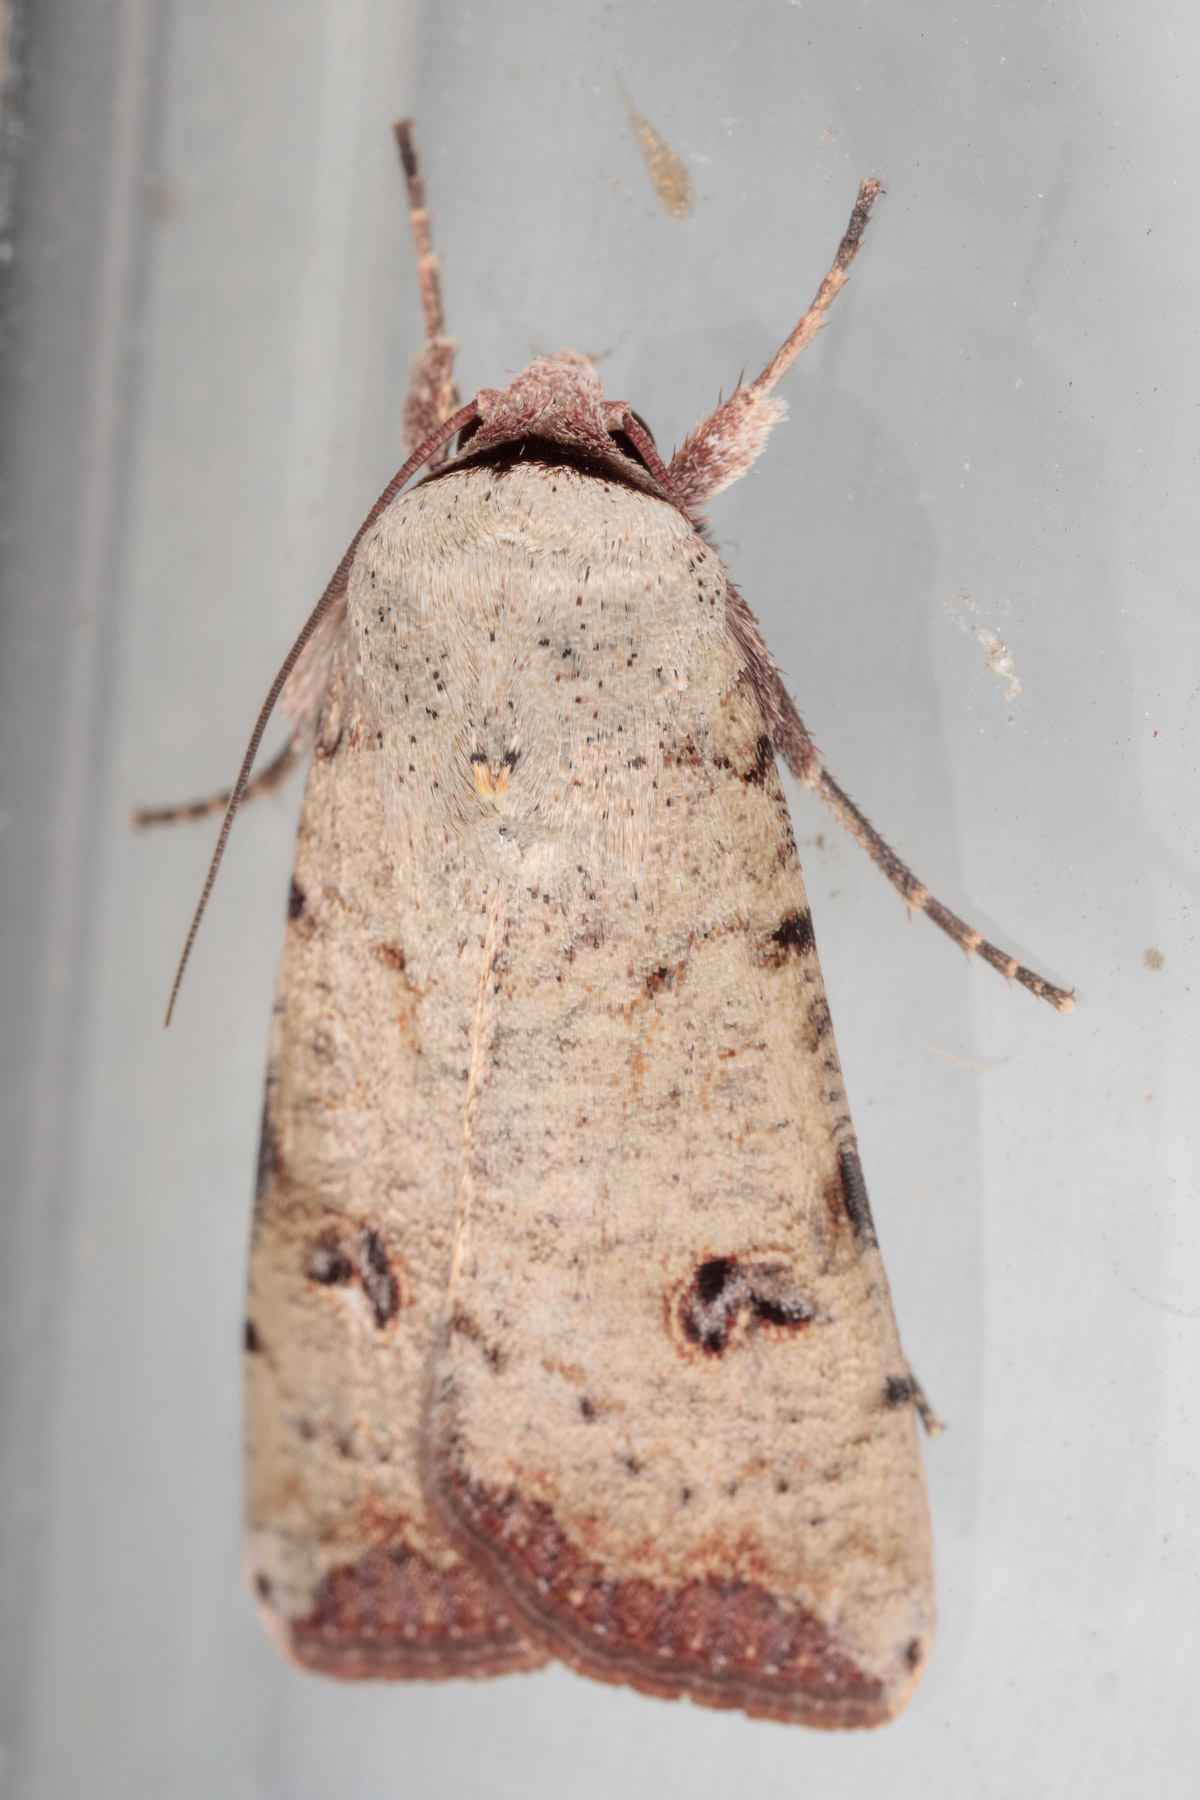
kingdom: Animalia
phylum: Arthropoda
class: Insecta
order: Lepidoptera
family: Noctuidae
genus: Anicla
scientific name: Anicla infecta
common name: Green cutworm
